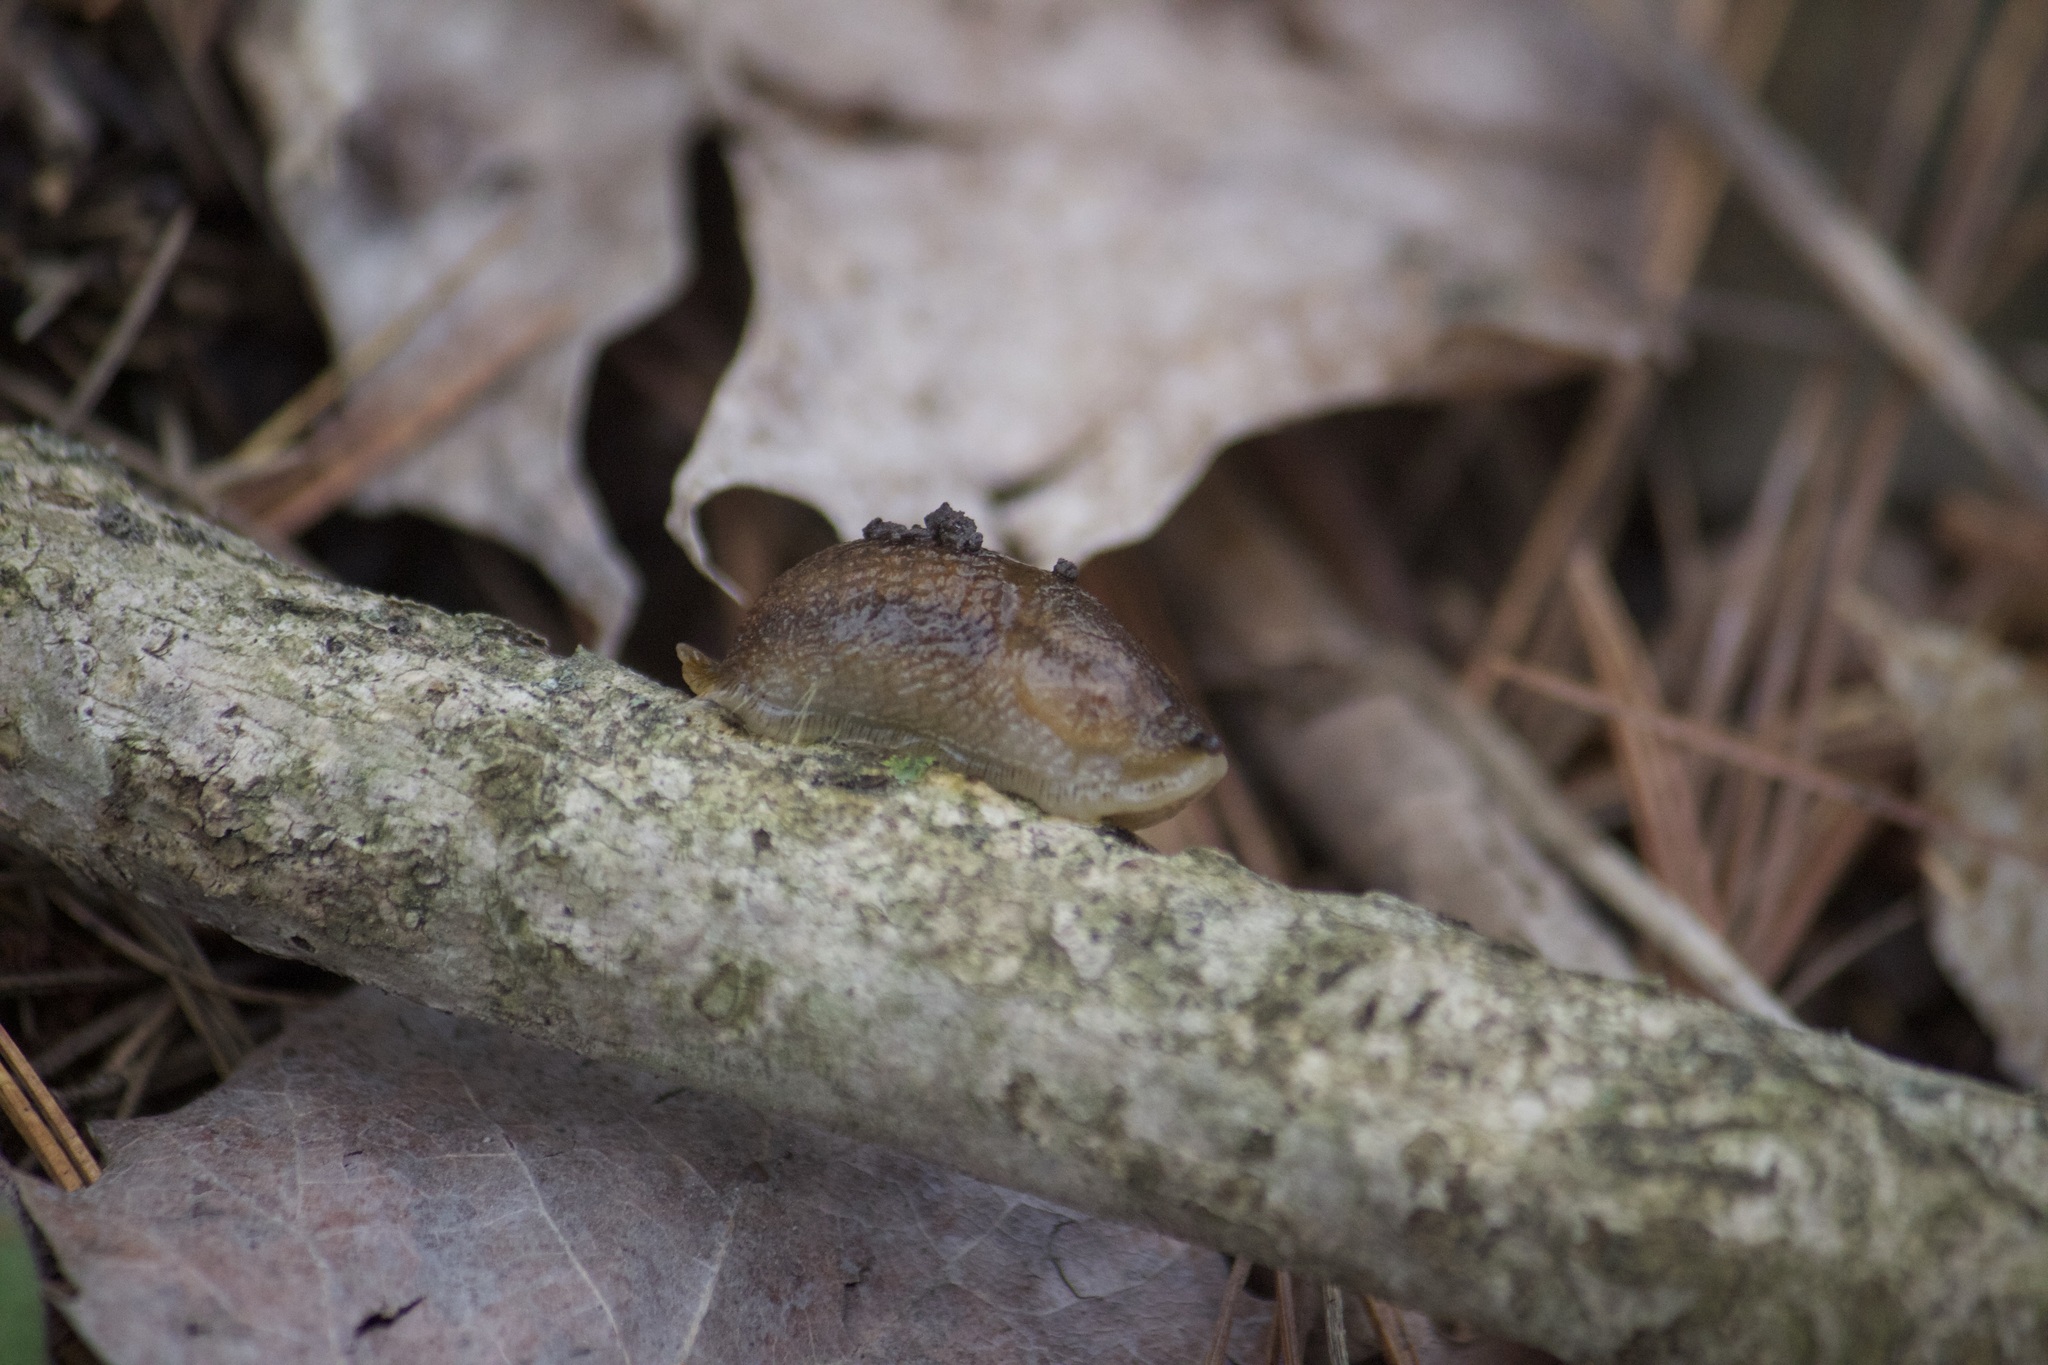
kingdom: Animalia
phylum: Mollusca
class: Gastropoda
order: Stylommatophora
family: Arionidae
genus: Arion
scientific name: Arion subfuscus
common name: Dusky arion
